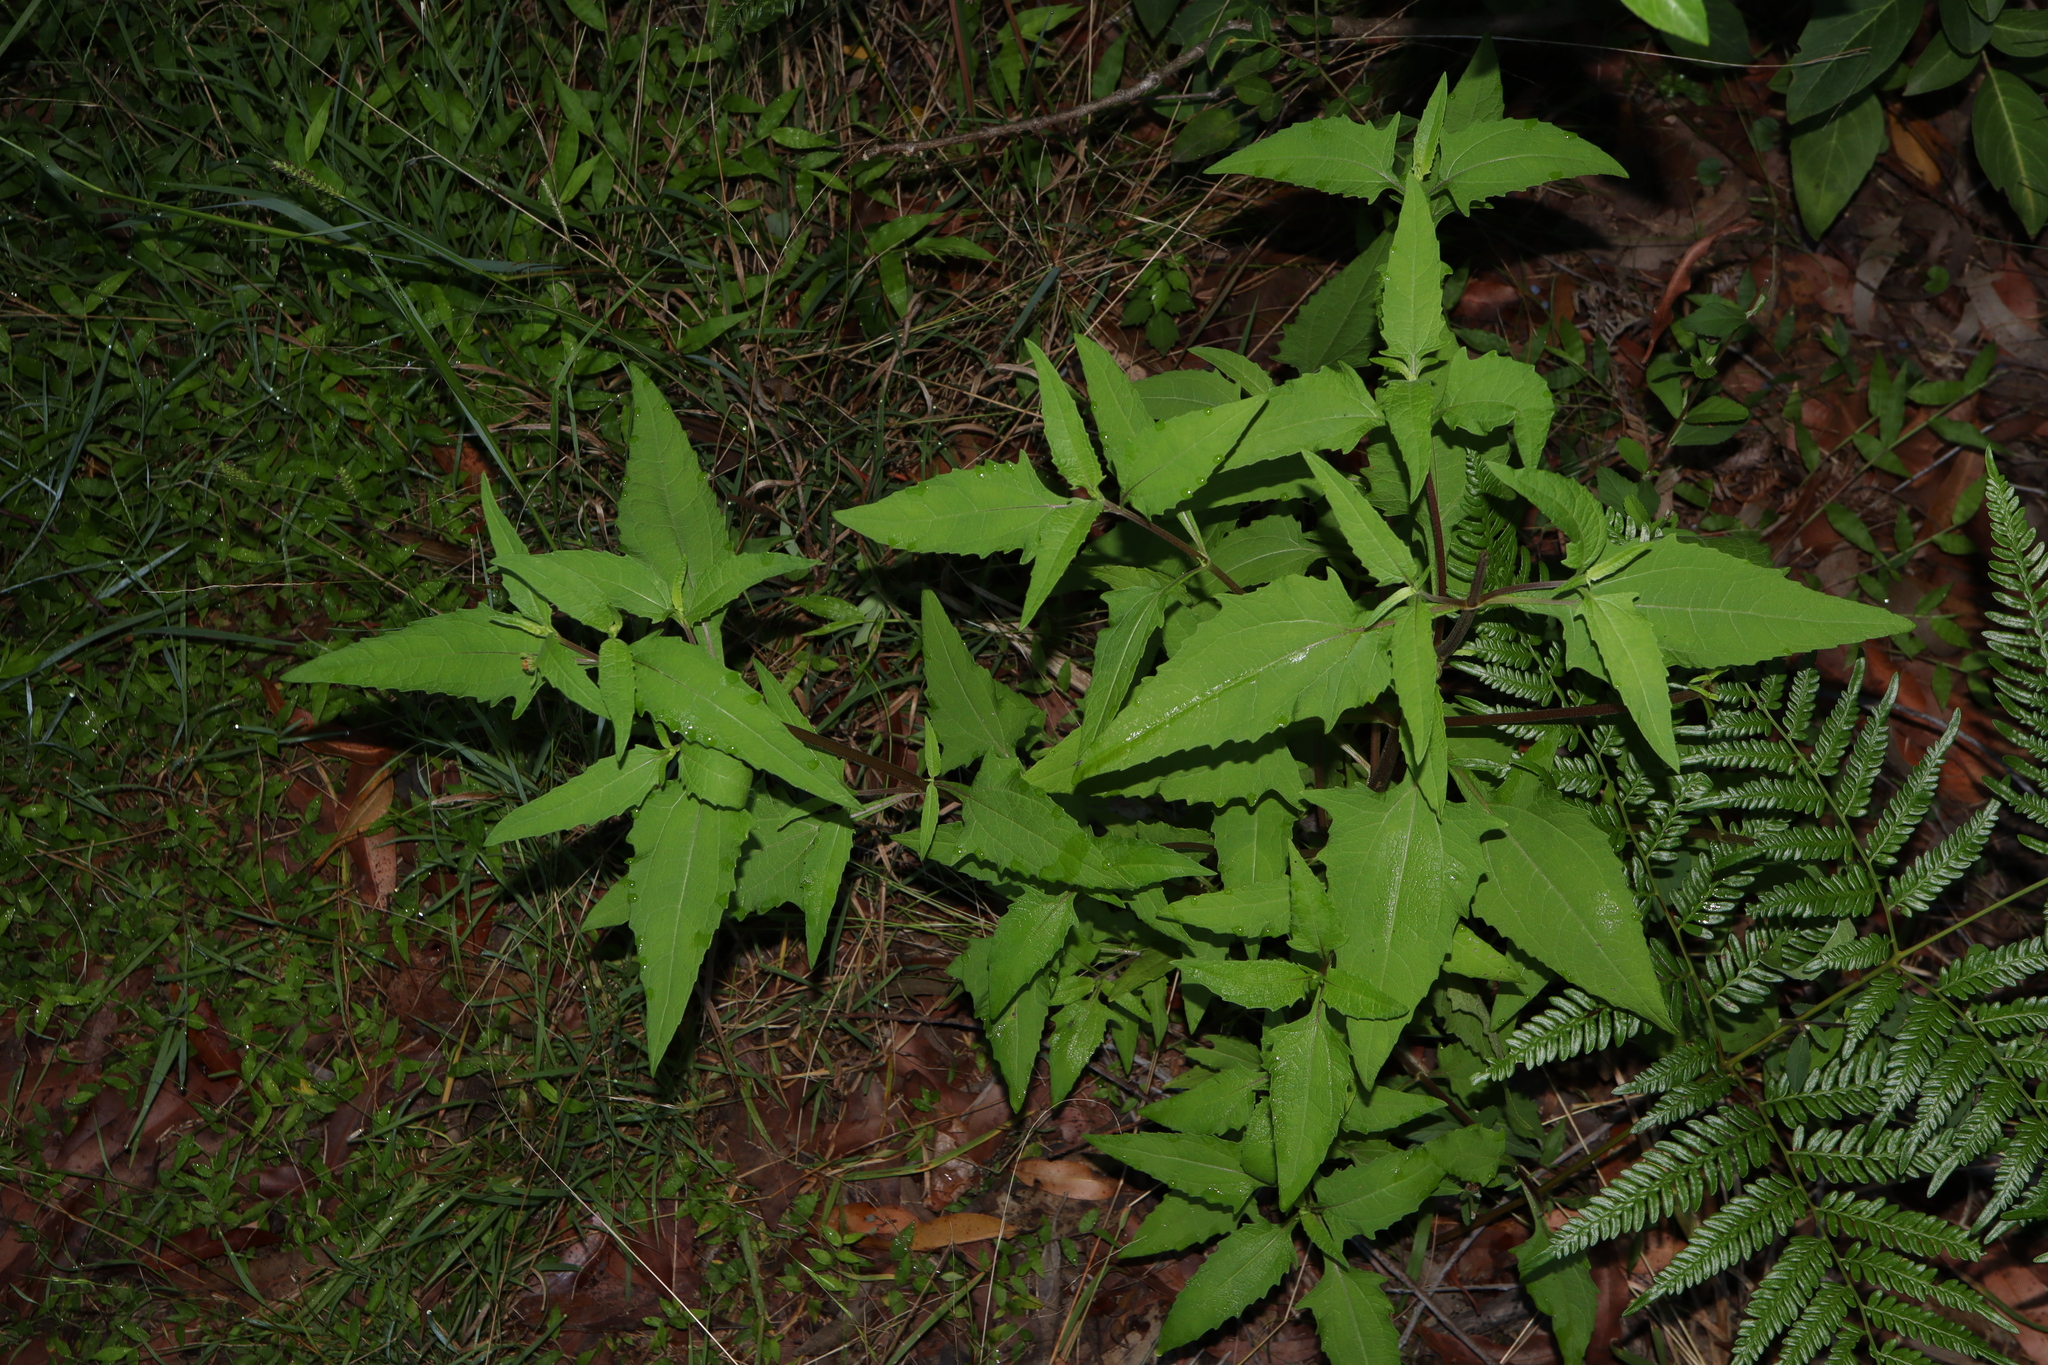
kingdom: Plantae
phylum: Tracheophyta
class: Magnoliopsida
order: Asterales
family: Asteraceae
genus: Sigesbeckia
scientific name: Sigesbeckia orientalis
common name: Eastern st paul's-wort
